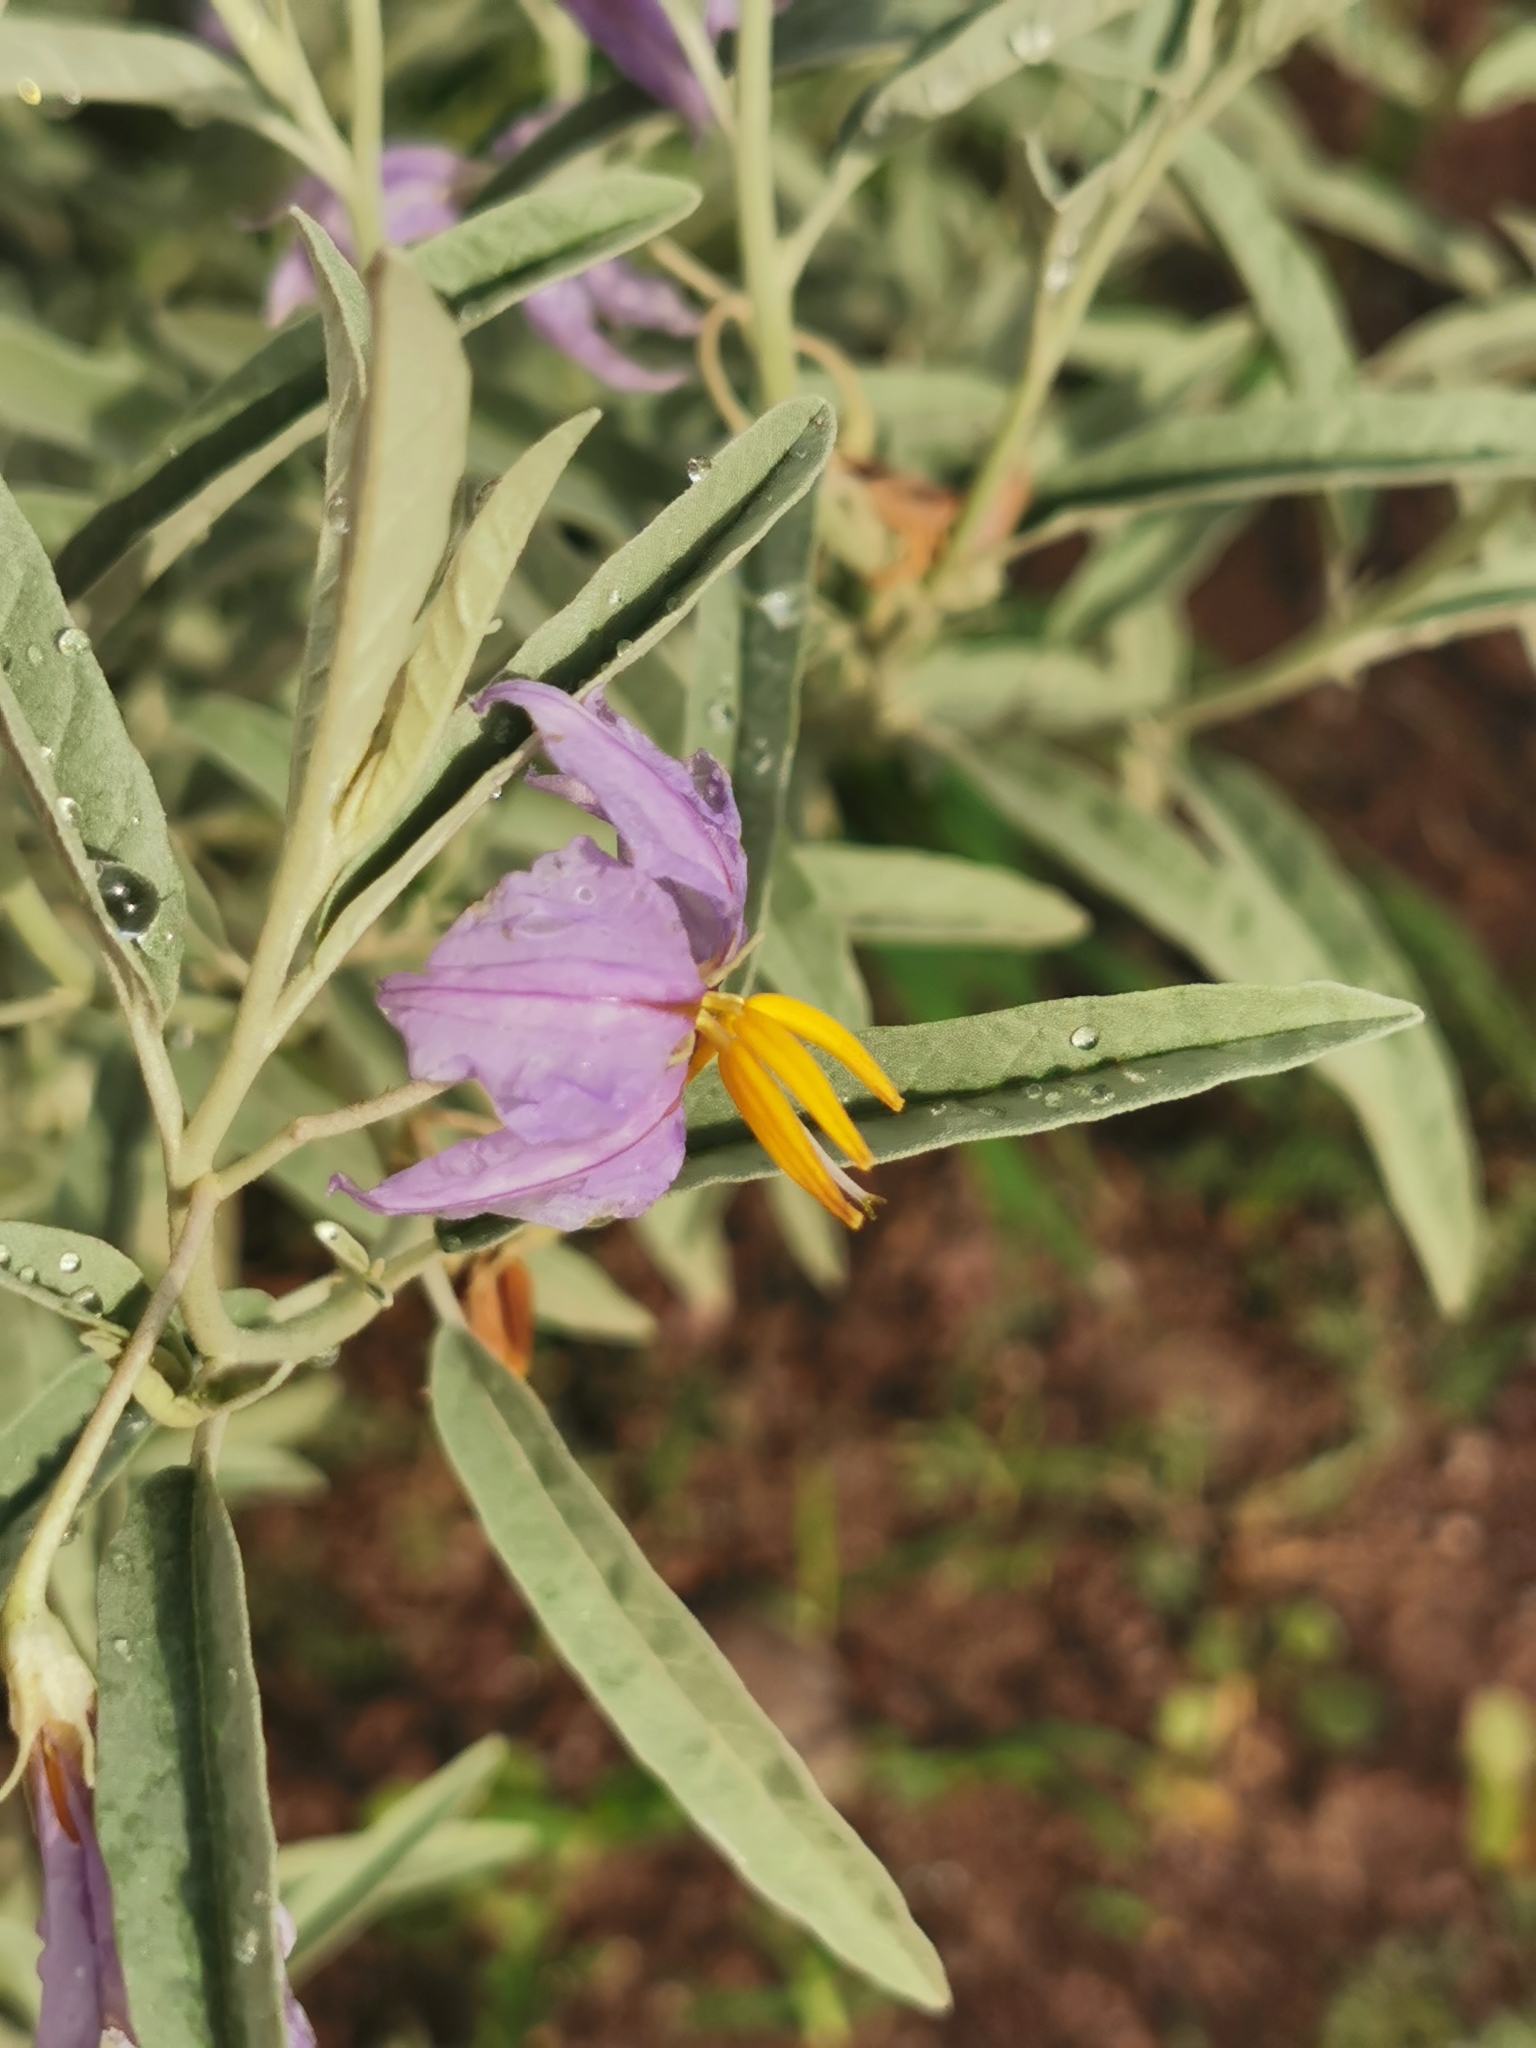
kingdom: Plantae
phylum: Tracheophyta
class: Magnoliopsida
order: Solanales
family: Solanaceae
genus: Solanum
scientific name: Solanum elaeagnifolium
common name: Silverleaf nightshade
